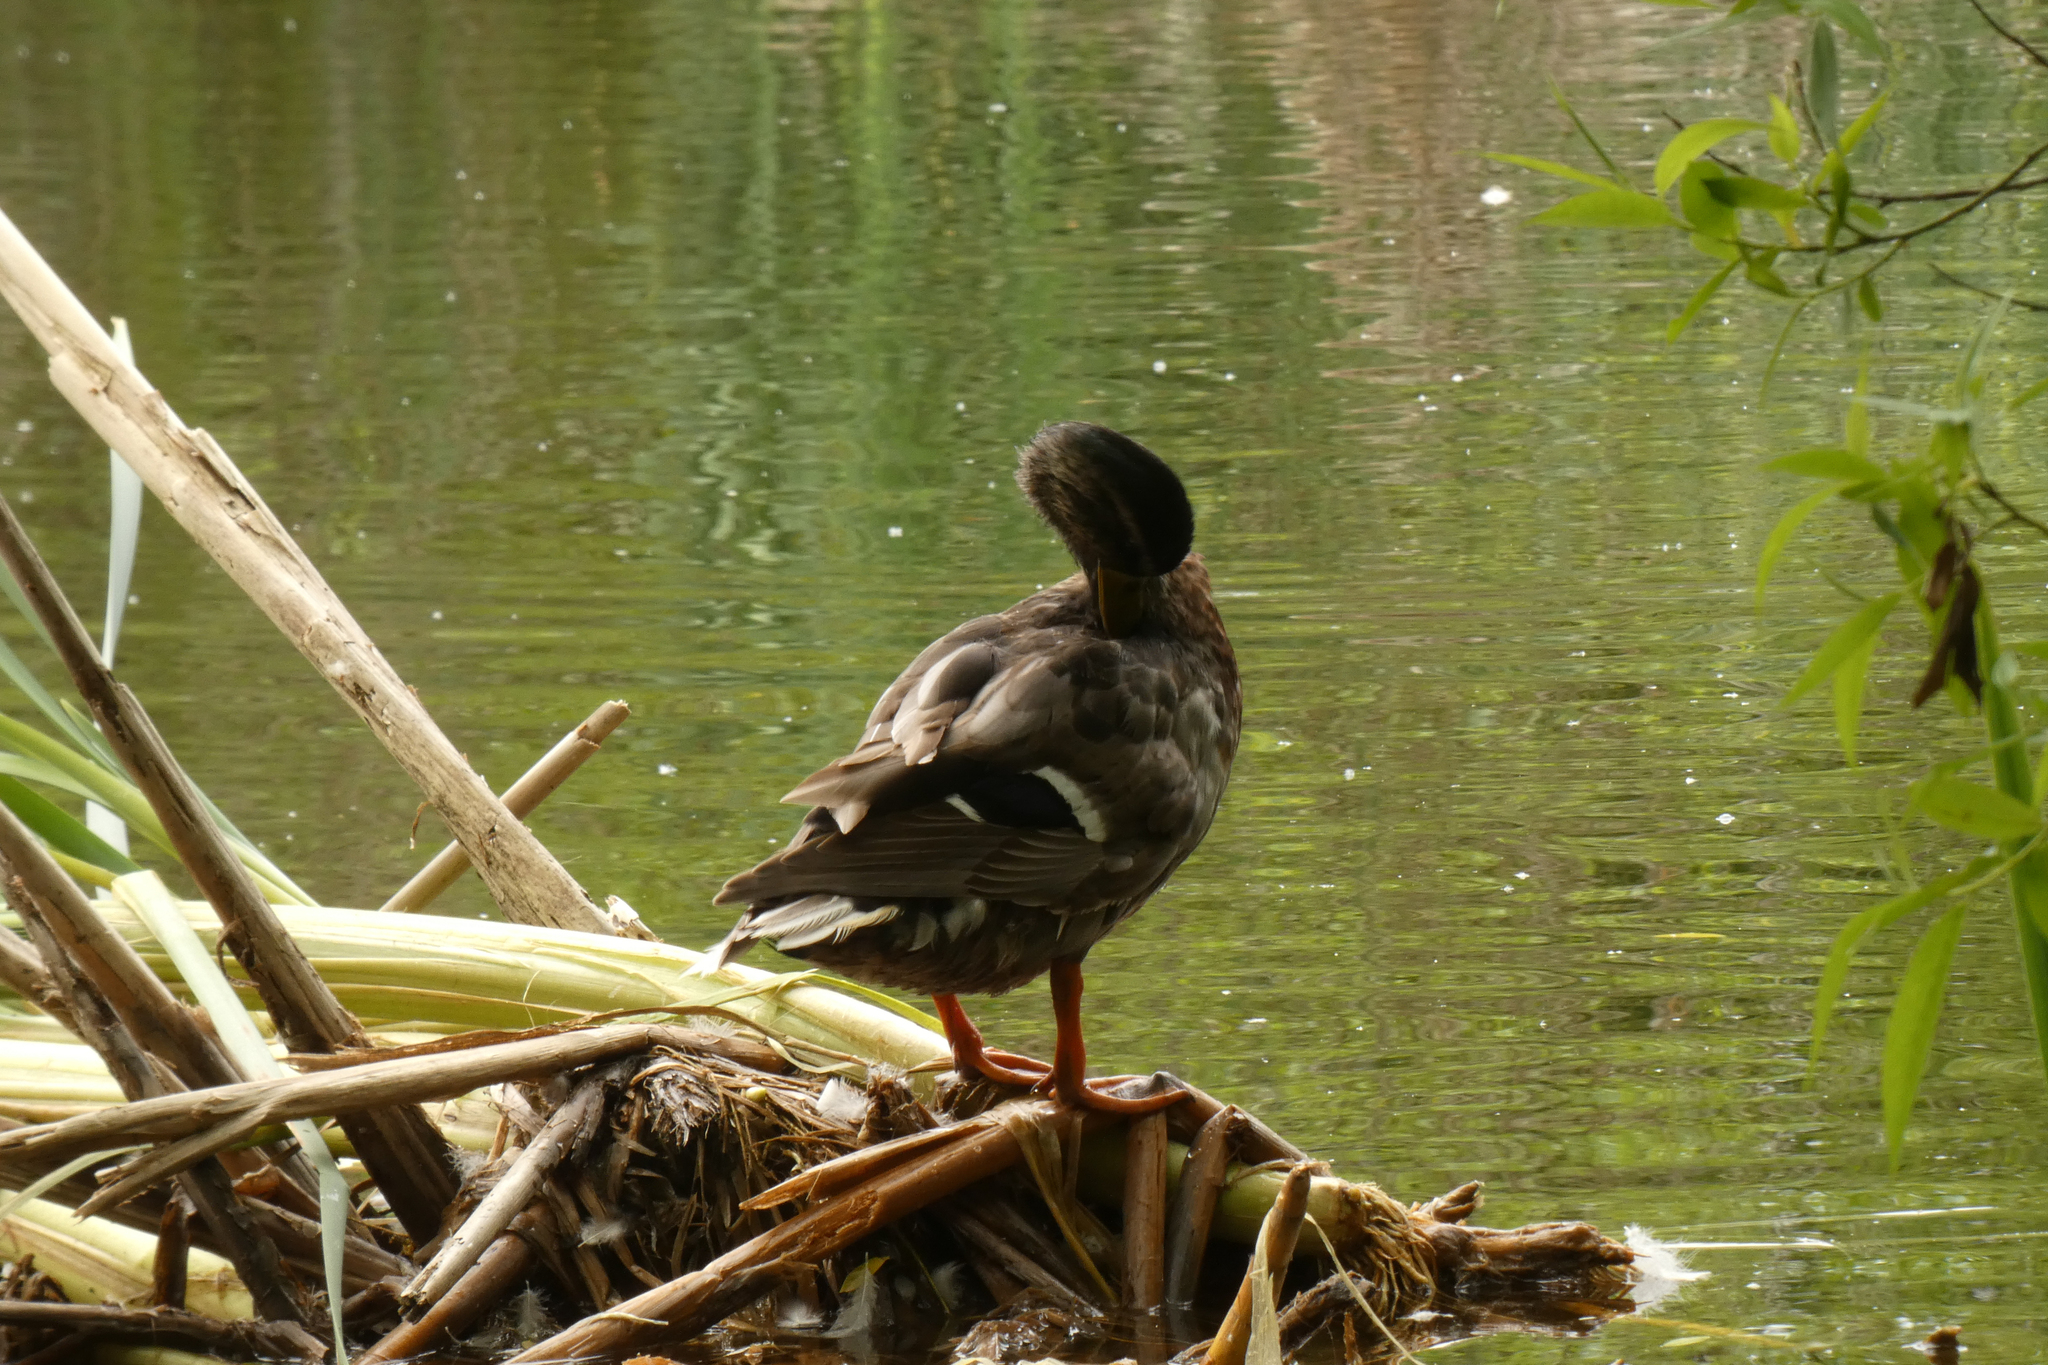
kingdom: Animalia
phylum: Chordata
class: Aves
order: Anseriformes
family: Anatidae
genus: Anas
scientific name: Anas platyrhynchos
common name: Mallard
